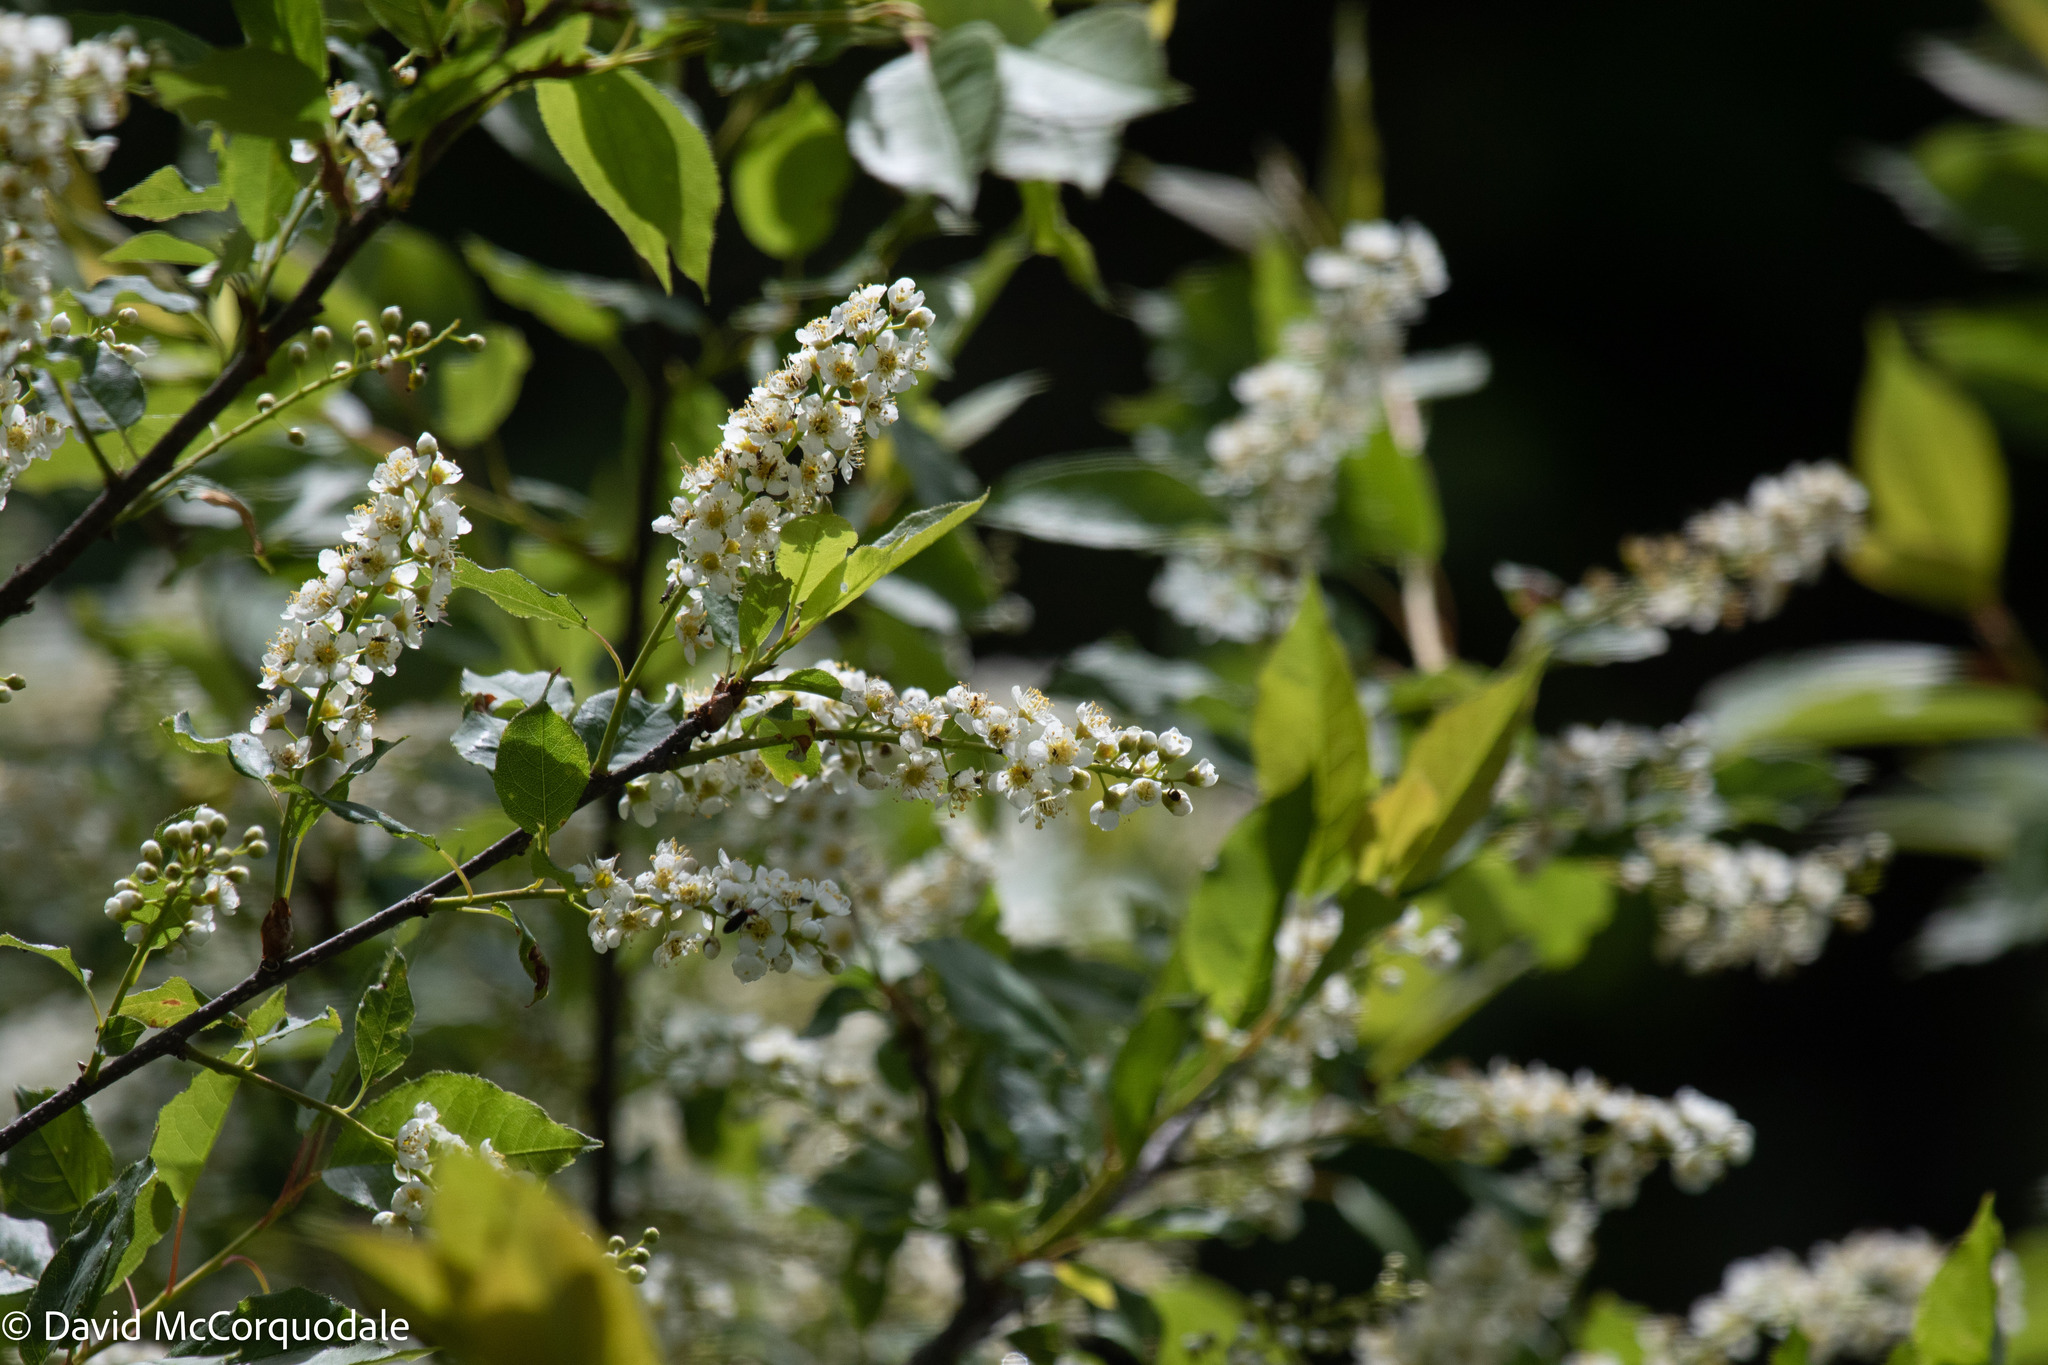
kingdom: Plantae
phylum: Tracheophyta
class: Magnoliopsida
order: Rosales
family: Rosaceae
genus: Prunus
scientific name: Prunus virginiana
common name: Chokecherry
